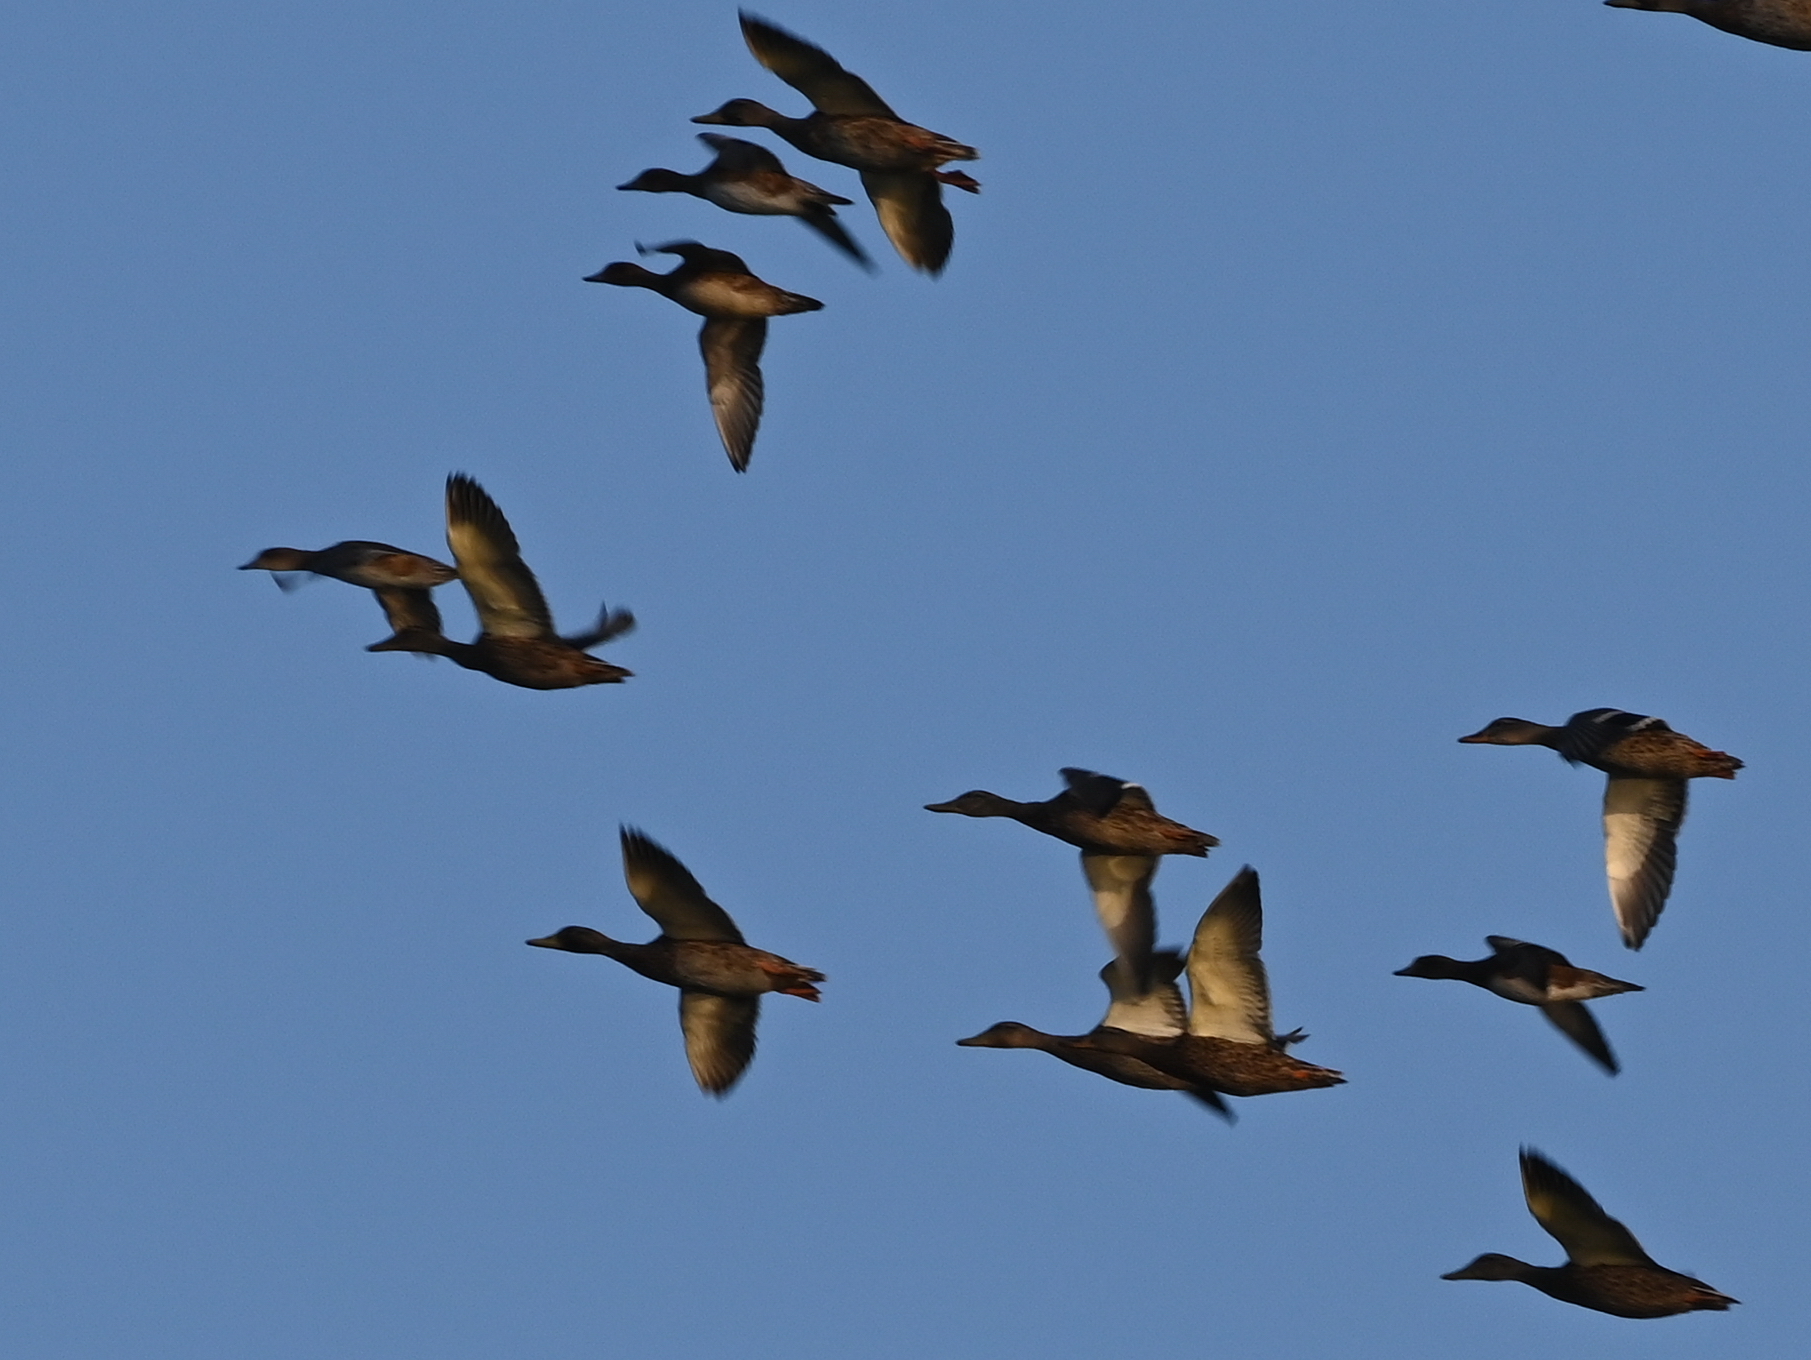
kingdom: Animalia
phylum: Chordata
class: Aves
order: Anseriformes
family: Anatidae
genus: Anas
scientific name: Anas crecca
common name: Eurasian teal
